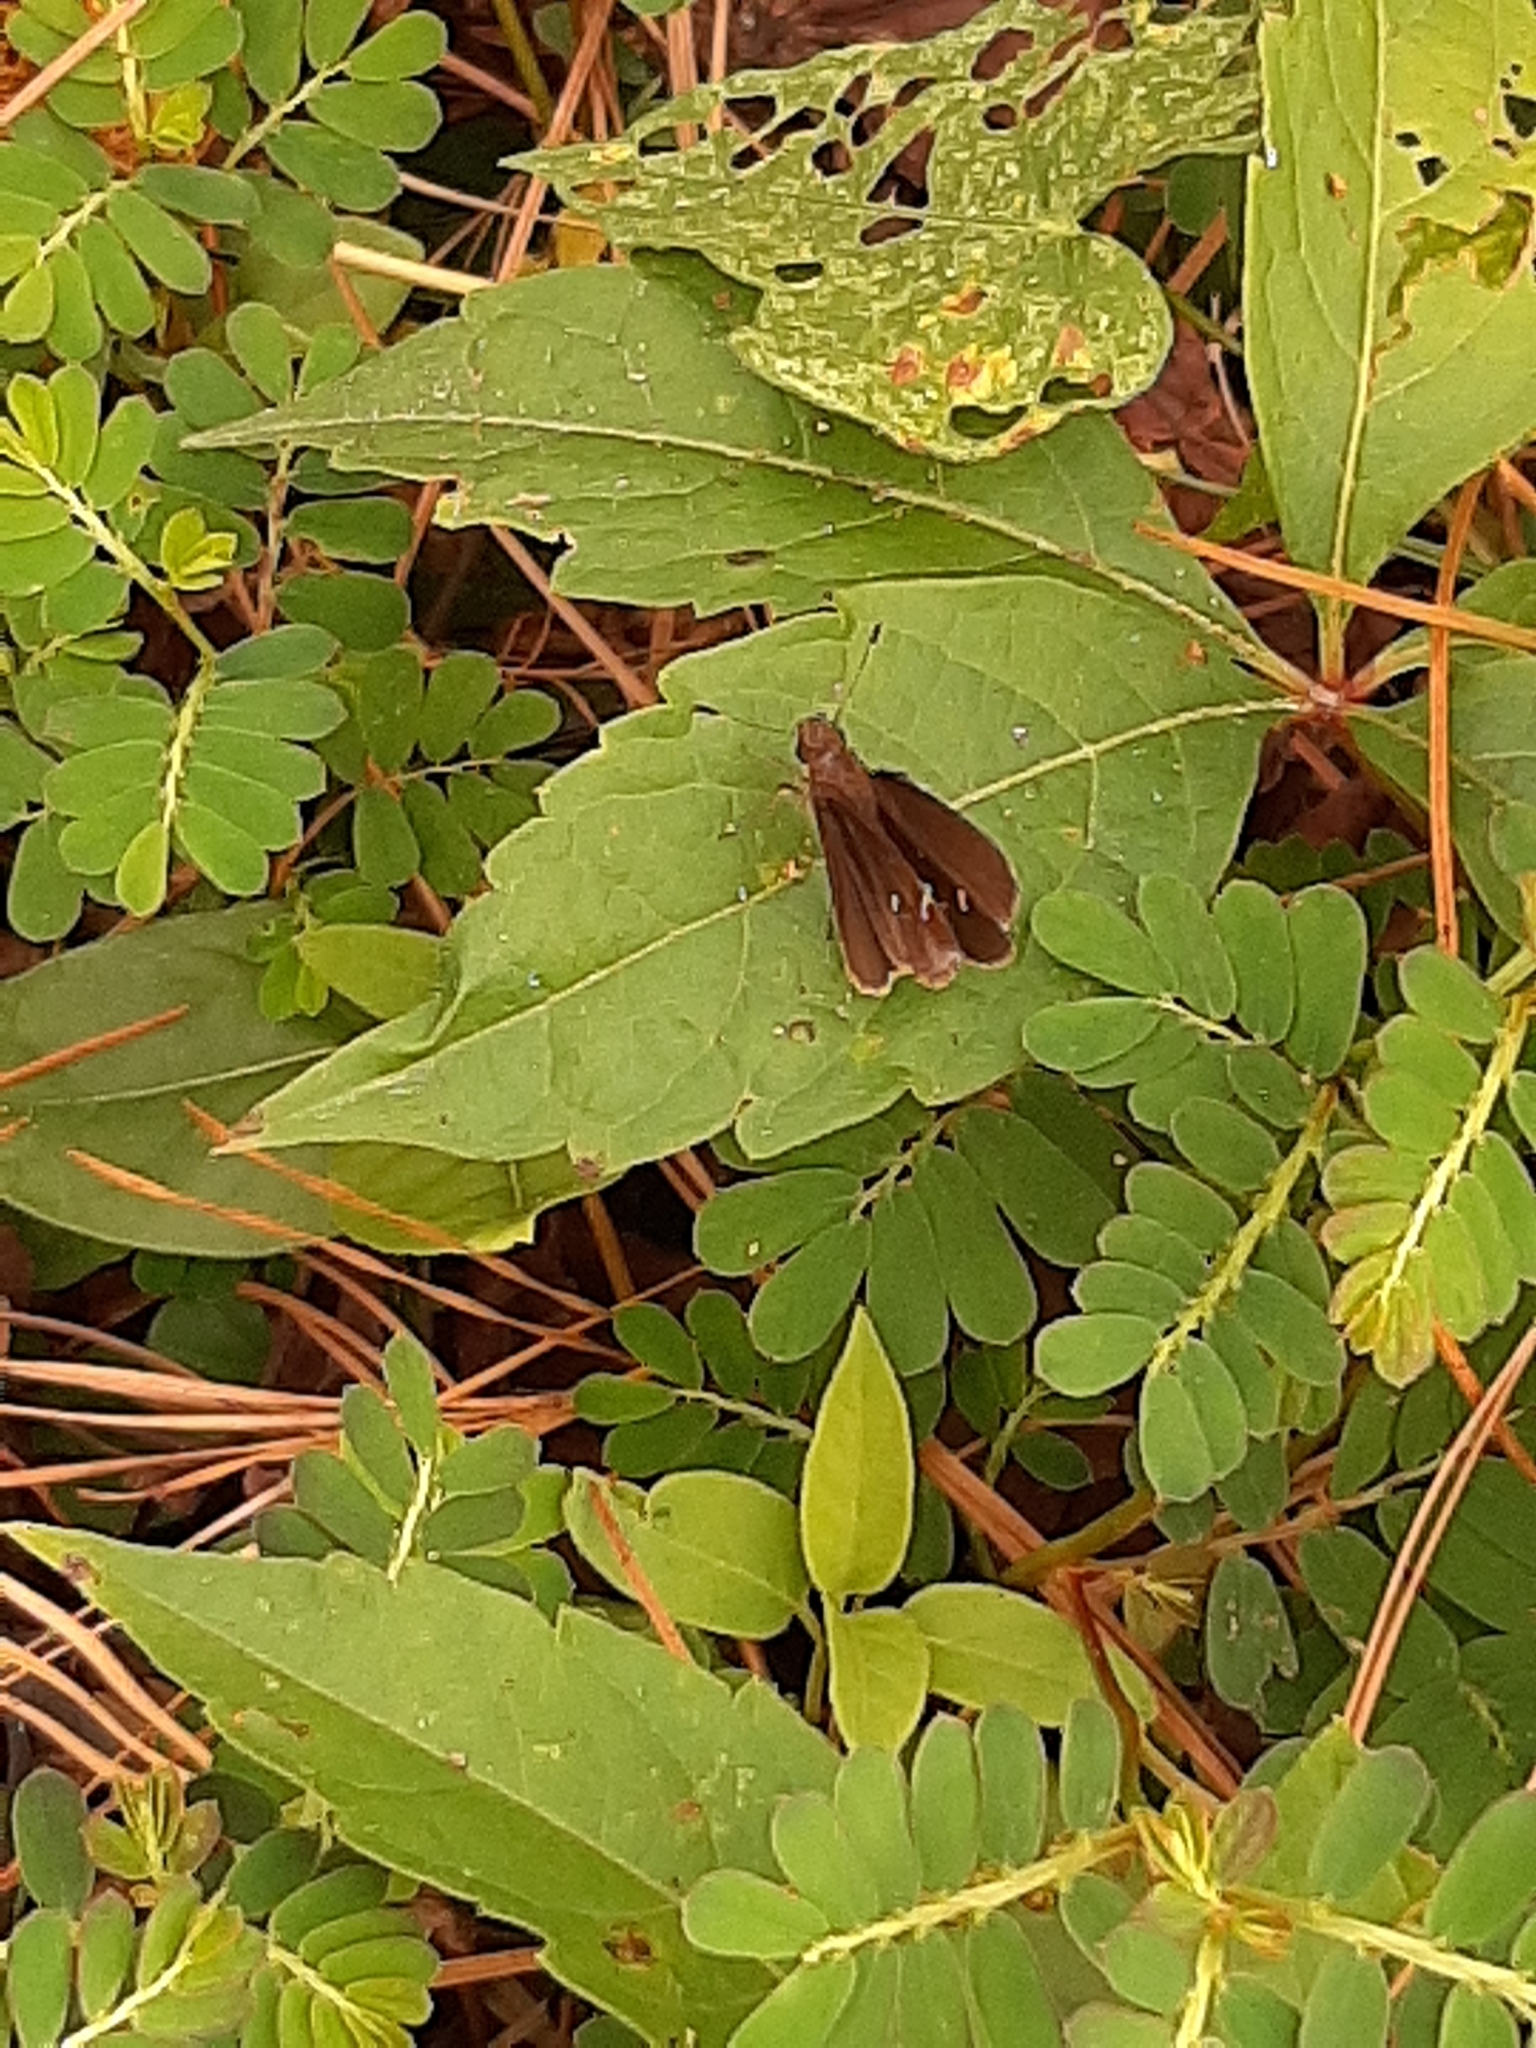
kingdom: Animalia
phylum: Arthropoda
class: Insecta
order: Lepidoptera
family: Hesperiidae
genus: Lerema
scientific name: Lerema accius
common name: Clouded skipper
